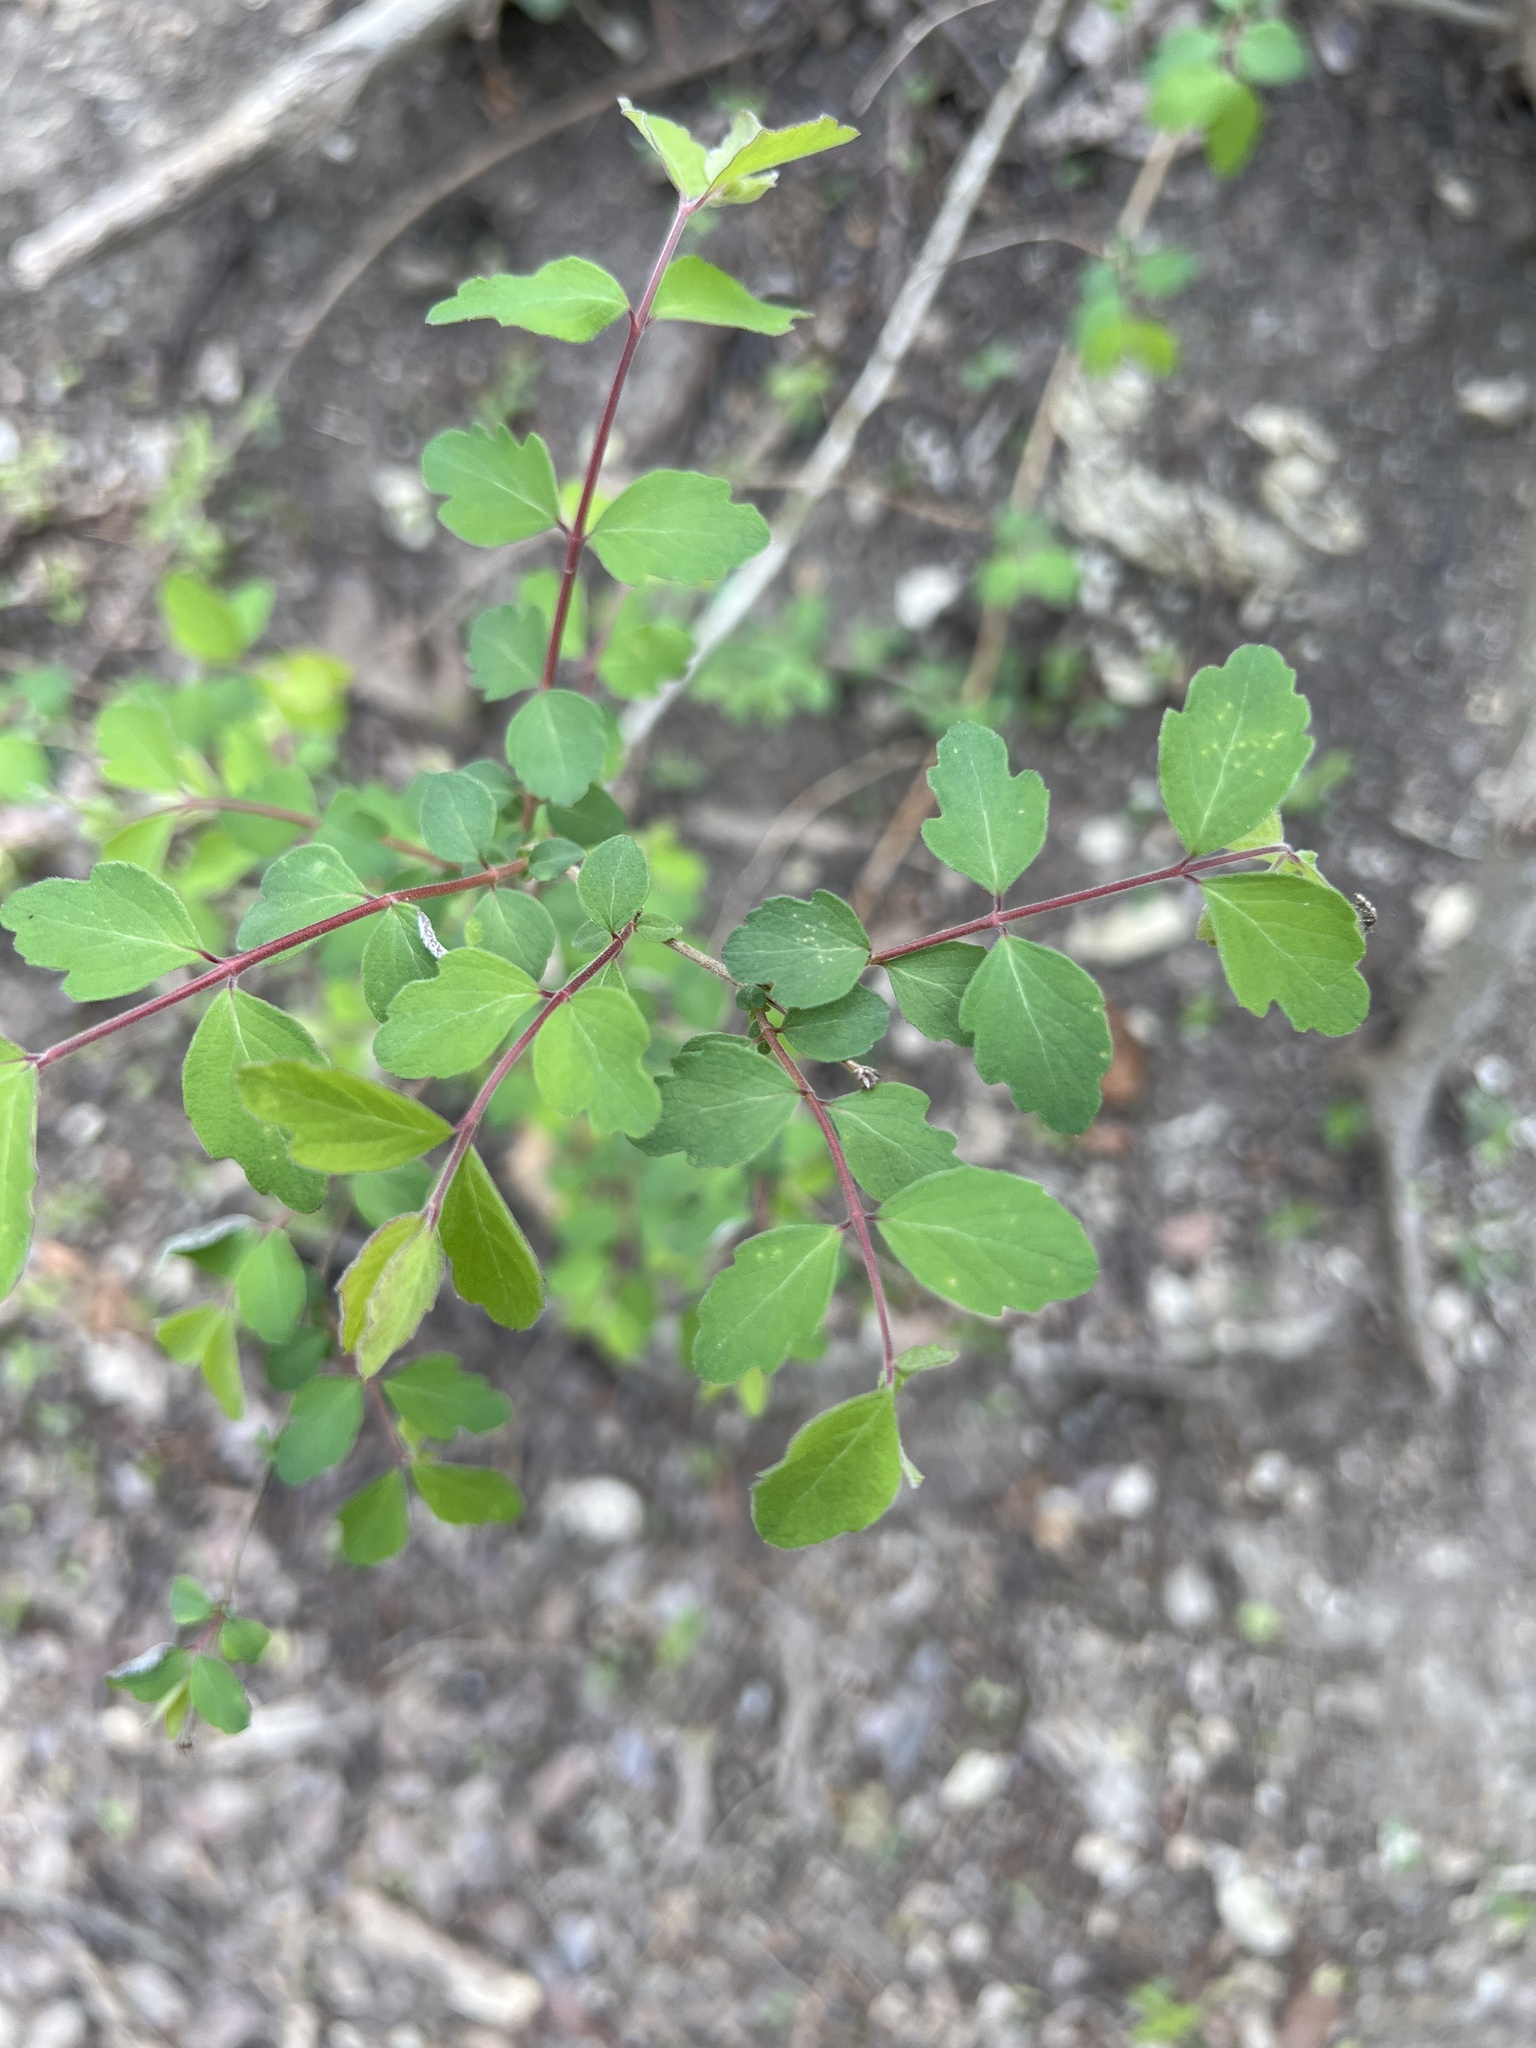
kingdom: Plantae
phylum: Tracheophyta
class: Magnoliopsida
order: Dipsacales
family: Caprifoliaceae
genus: Symphoricarpos
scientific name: Symphoricarpos orbiculatus
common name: Coralberry
